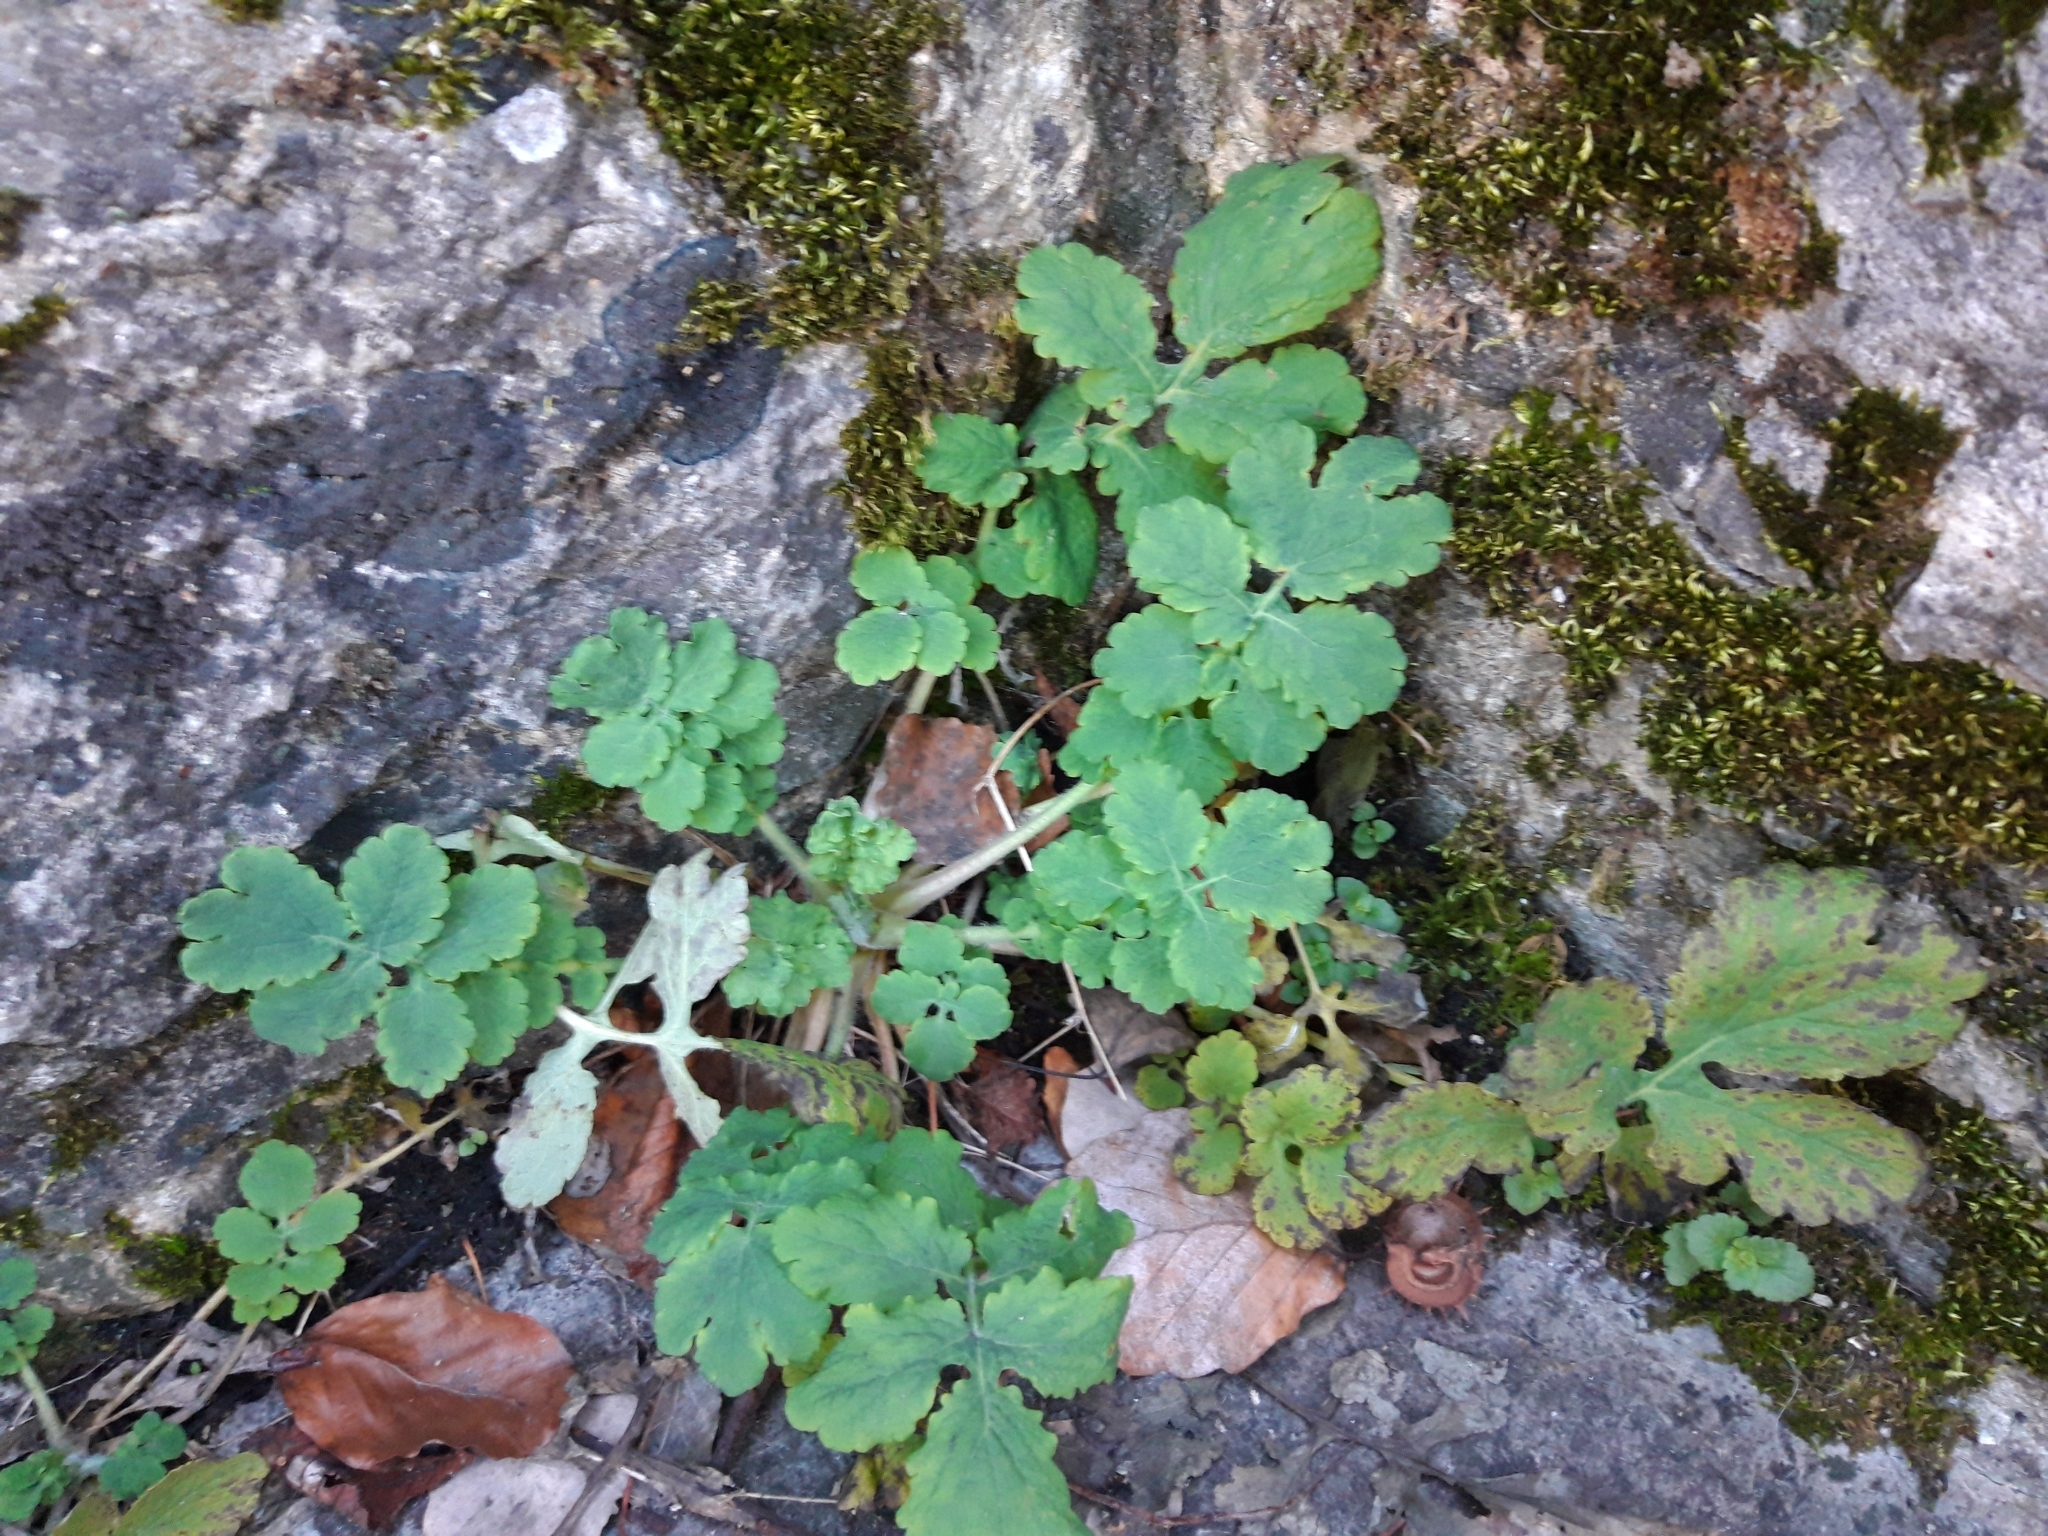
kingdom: Plantae
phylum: Tracheophyta
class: Magnoliopsida
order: Ranunculales
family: Papaveraceae
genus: Chelidonium
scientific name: Chelidonium majus
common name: Greater celandine
